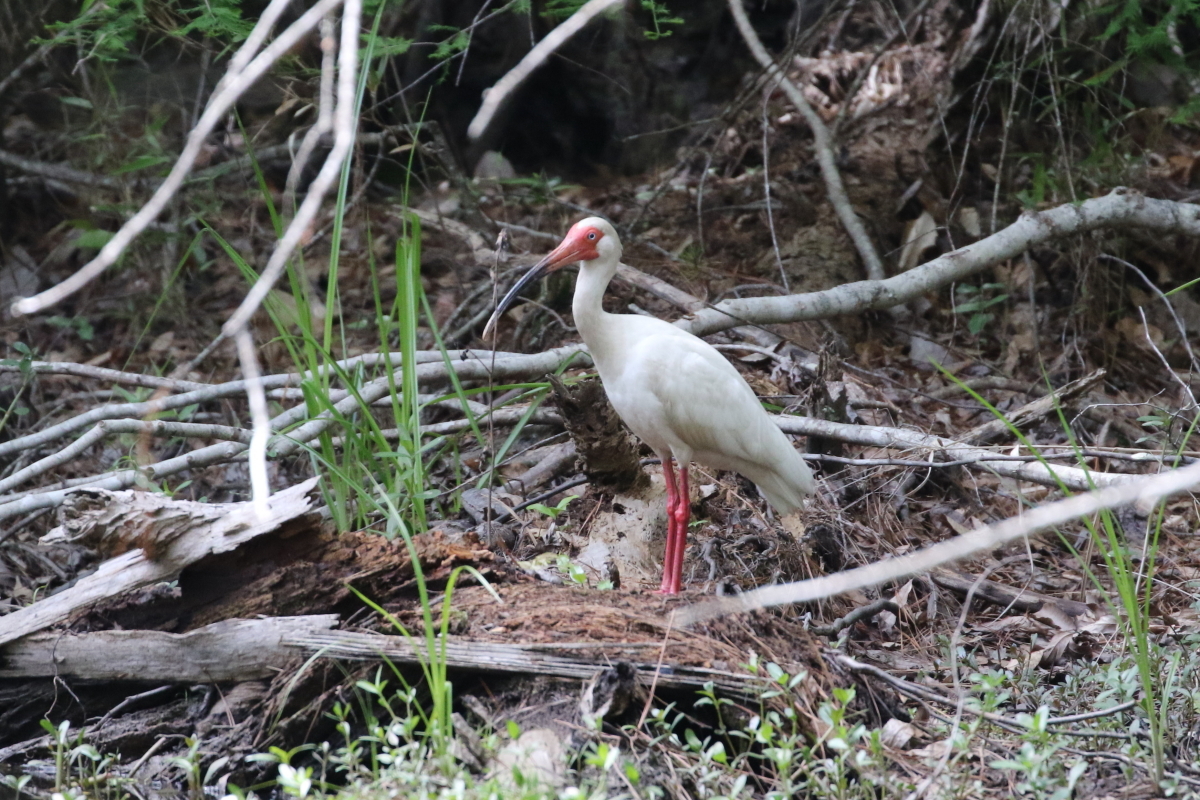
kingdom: Animalia
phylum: Chordata
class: Aves
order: Pelecaniformes
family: Threskiornithidae
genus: Eudocimus
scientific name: Eudocimus albus
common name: White ibis
